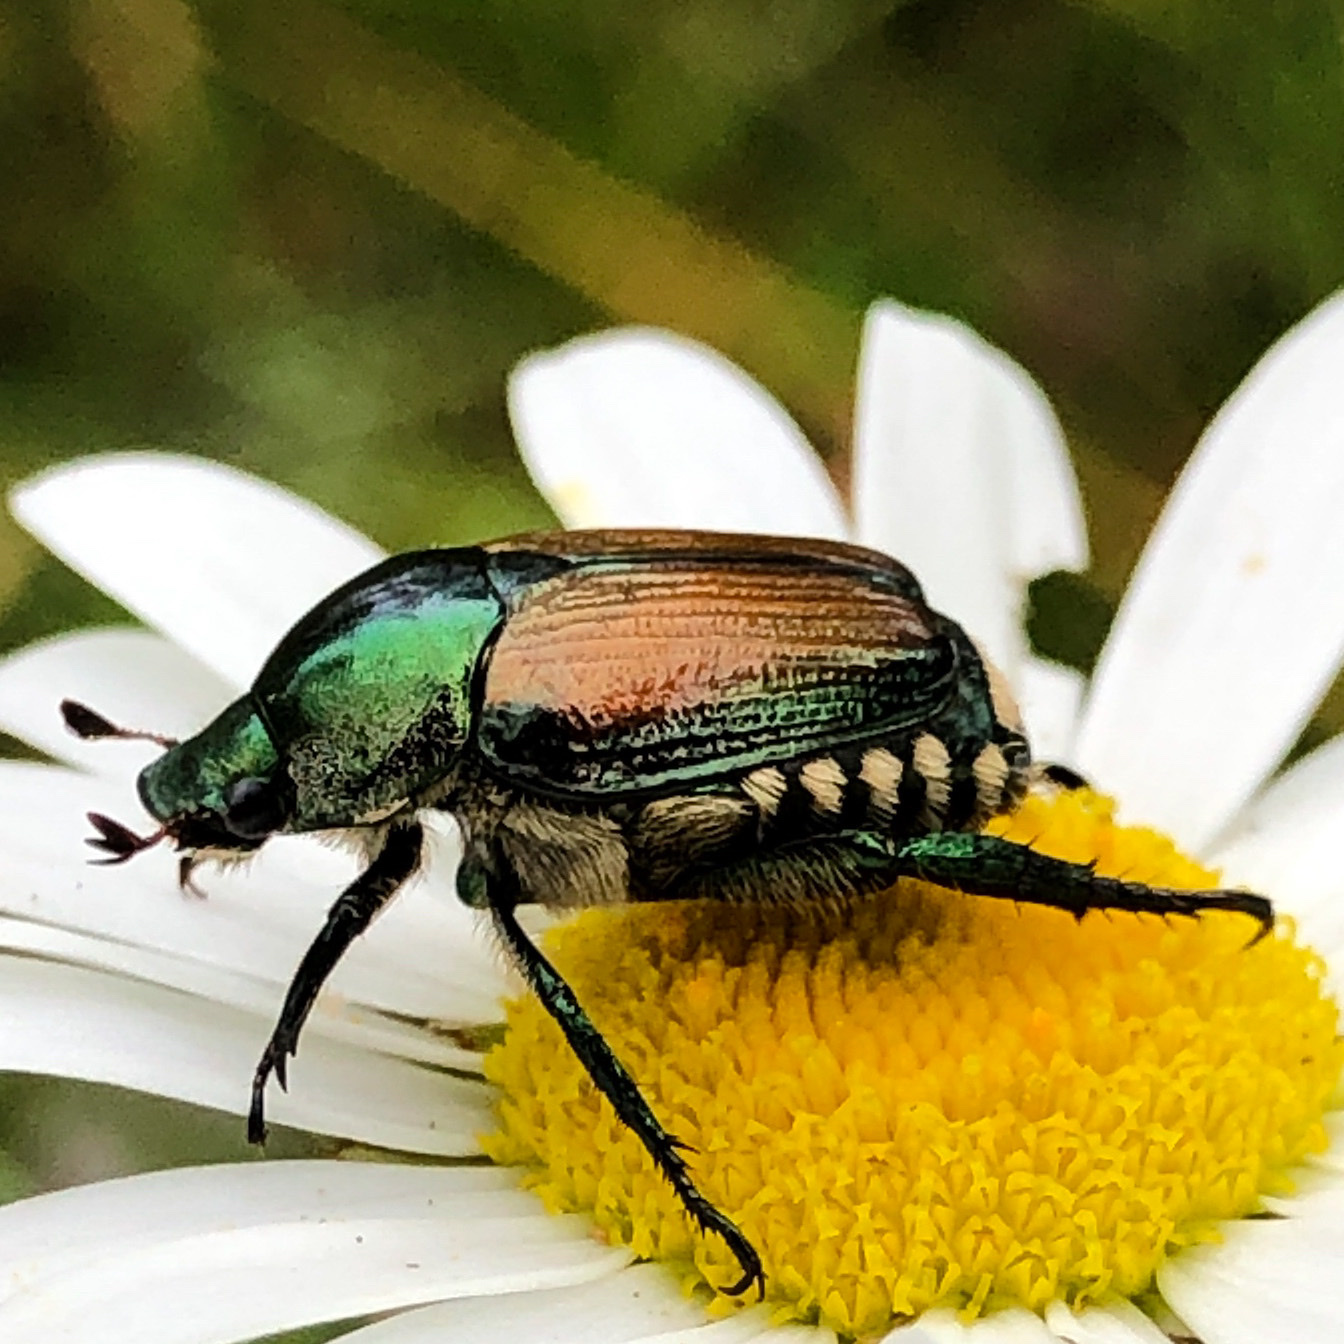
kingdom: Animalia
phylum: Arthropoda
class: Insecta
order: Coleoptera
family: Scarabaeidae
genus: Popillia
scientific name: Popillia japonica
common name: Japanese beetle
